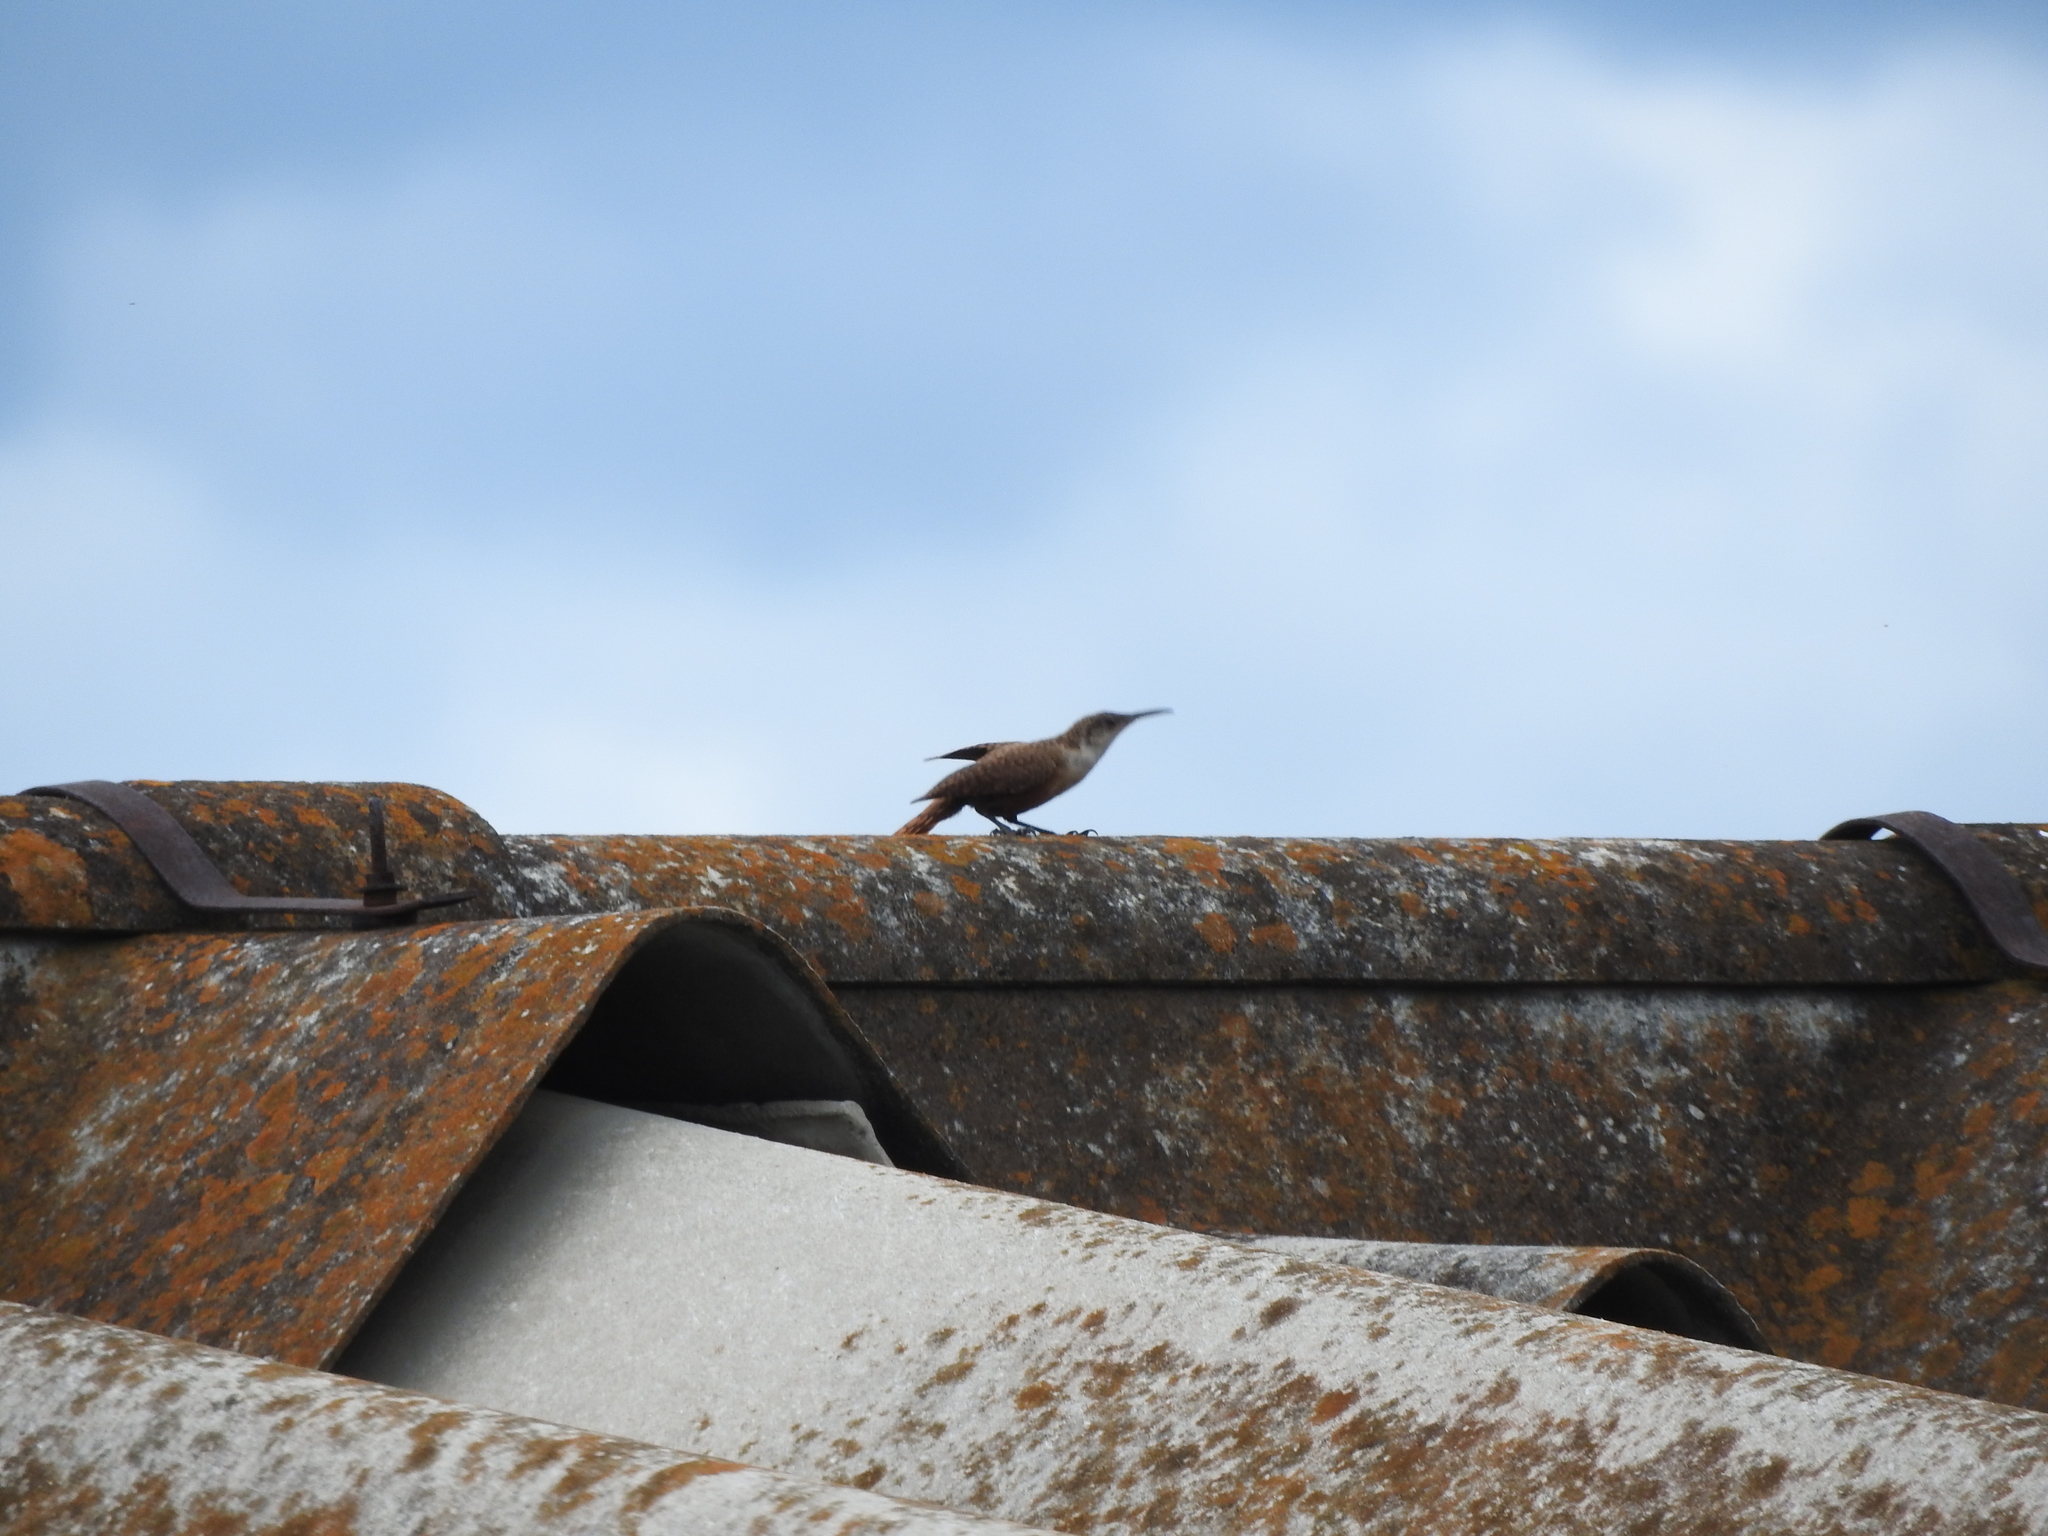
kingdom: Animalia
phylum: Chordata
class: Aves
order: Passeriformes
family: Troglodytidae
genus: Catherpes
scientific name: Catherpes mexicanus
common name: Canyon wren
